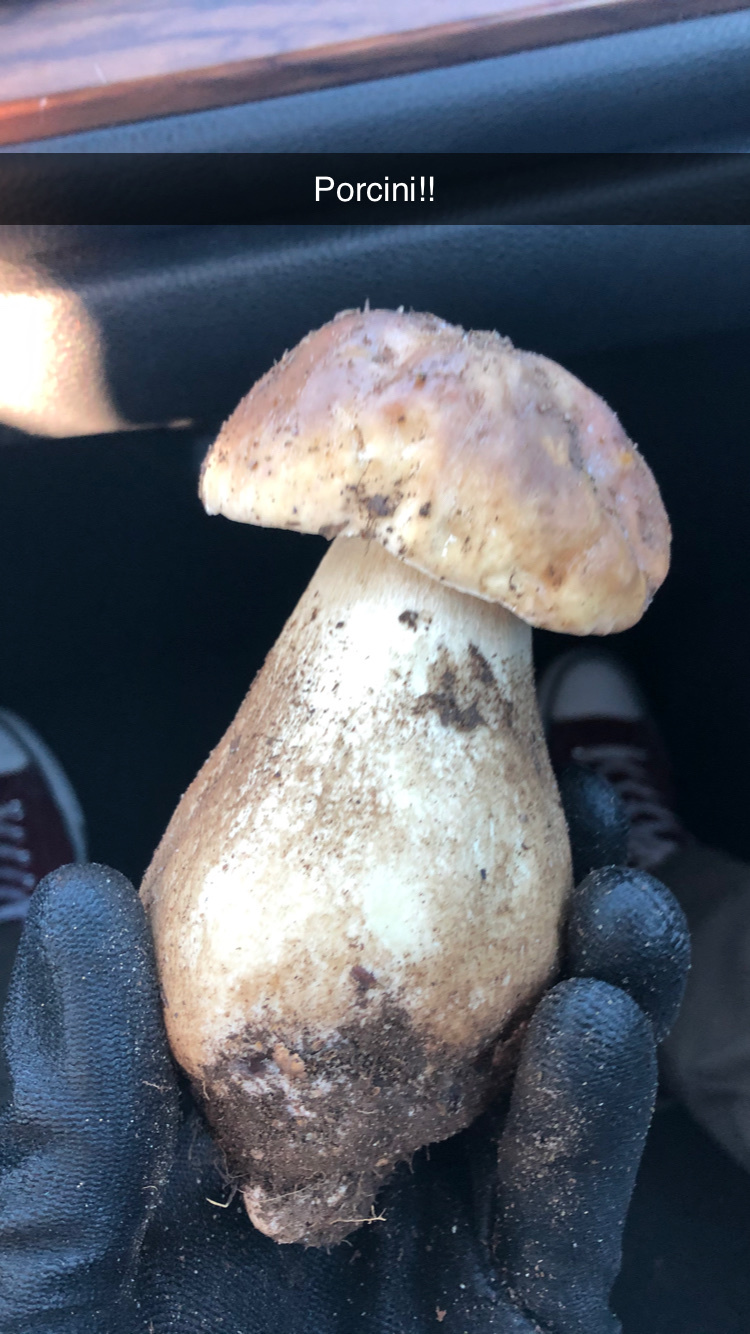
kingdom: Fungi
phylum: Basidiomycota
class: Agaricomycetes
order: Boletales
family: Boletaceae
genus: Boletus
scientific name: Boletus edulis
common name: Cep
